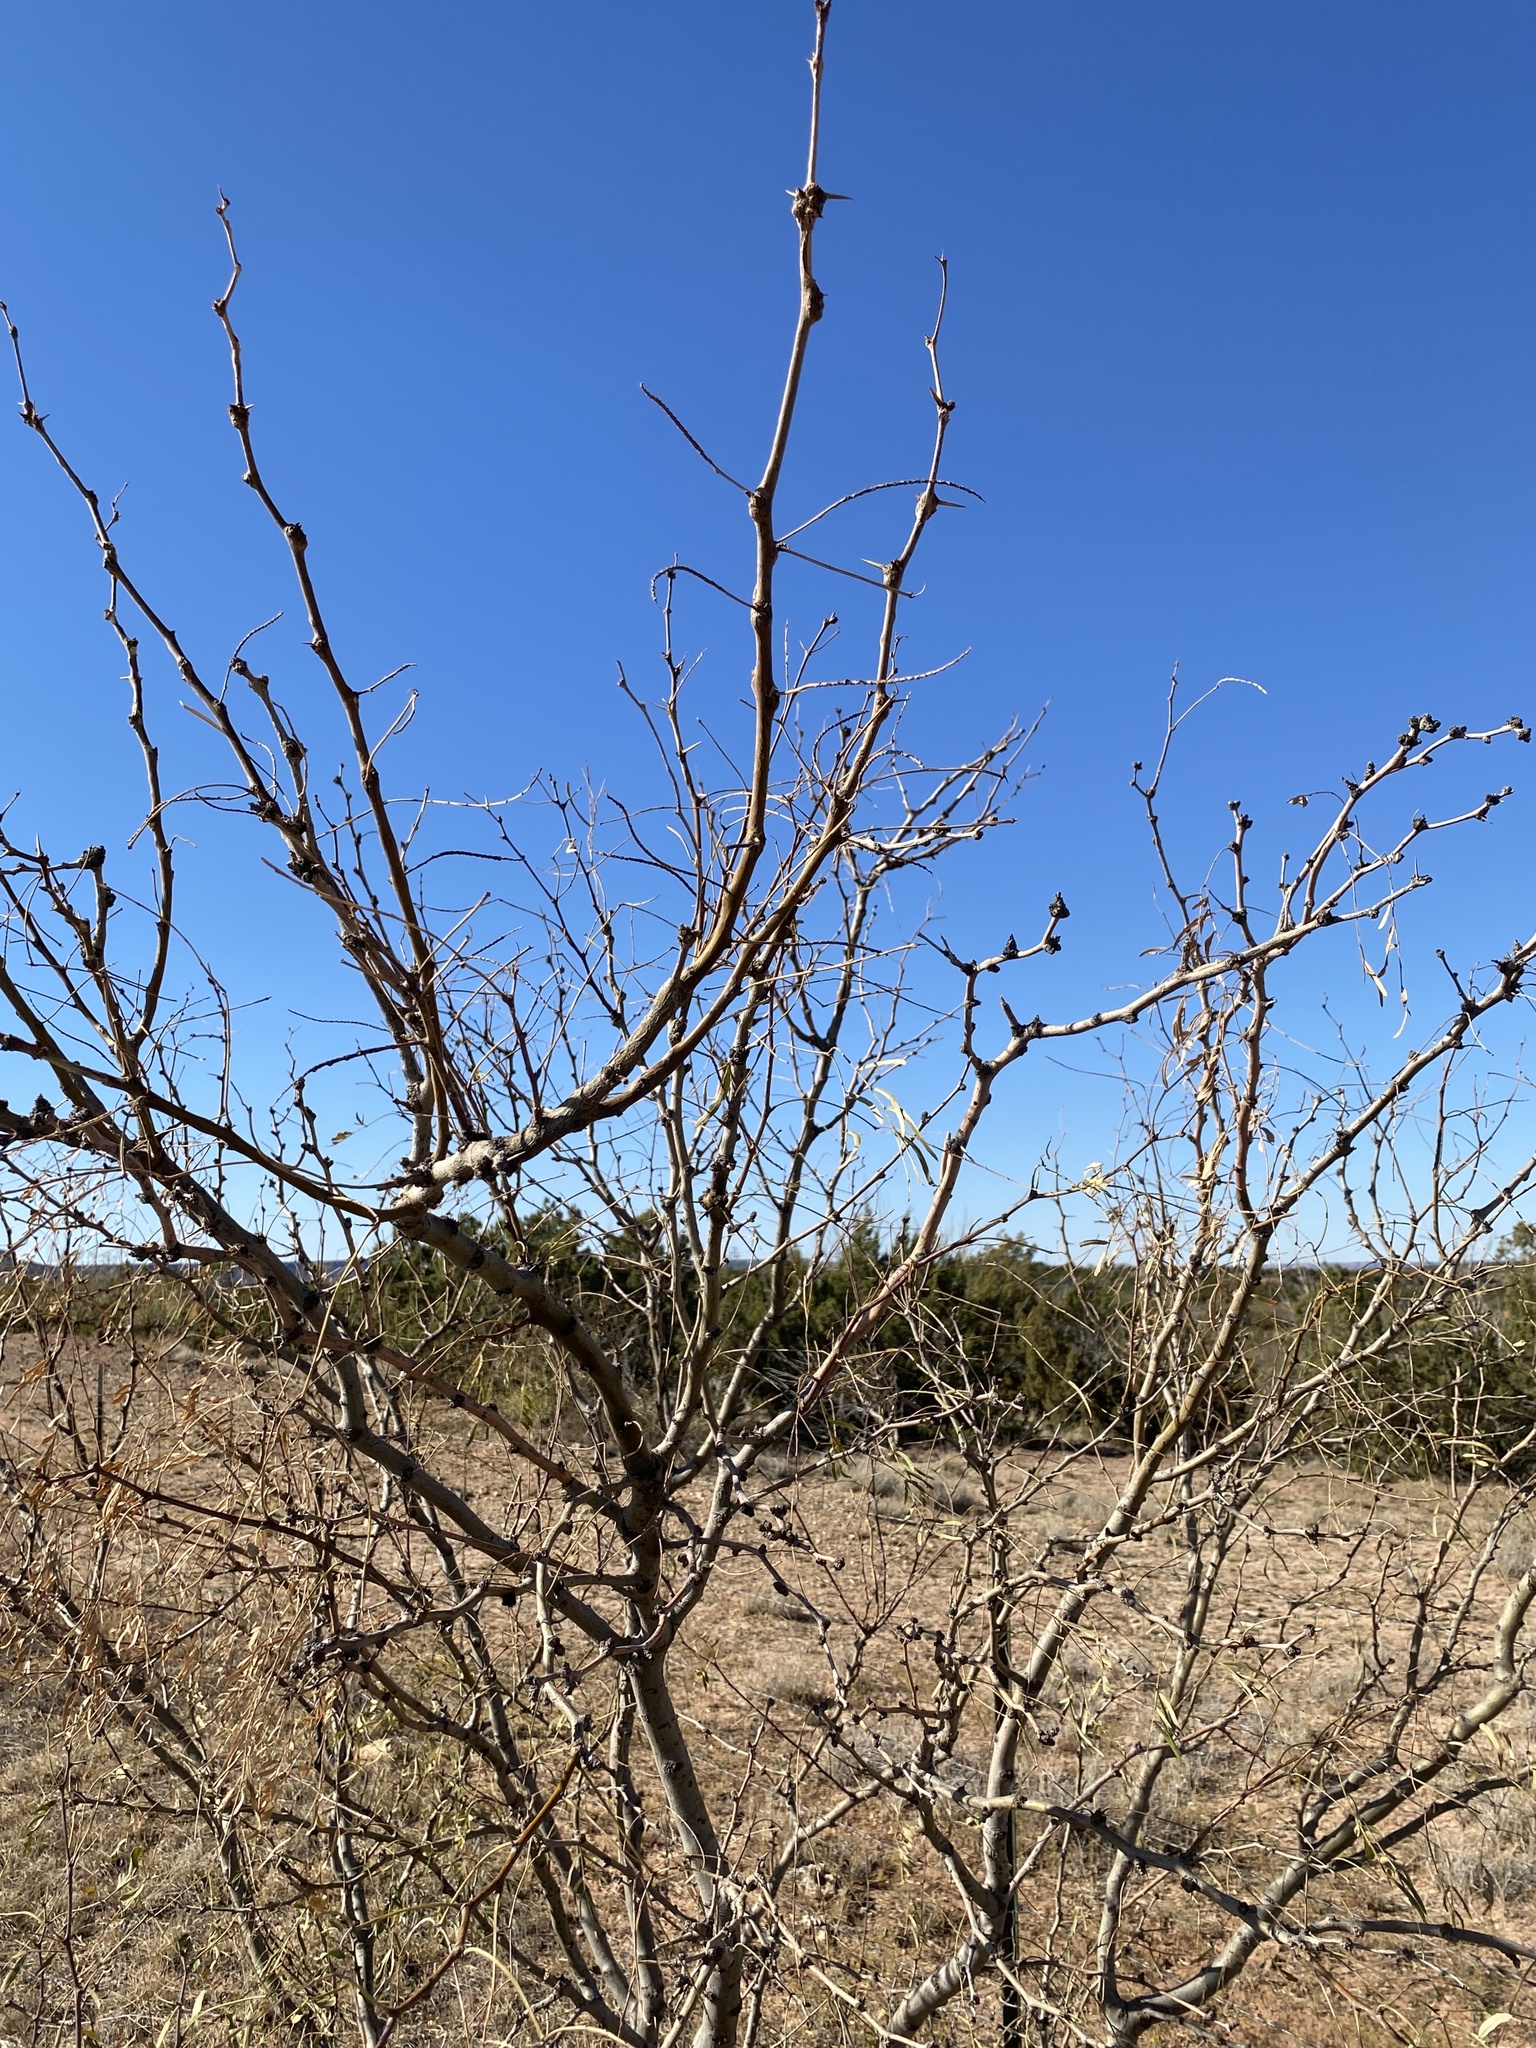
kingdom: Plantae
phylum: Tracheophyta
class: Magnoliopsida
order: Fabales
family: Fabaceae
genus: Prosopis
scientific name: Prosopis glandulosa
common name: Honey mesquite
